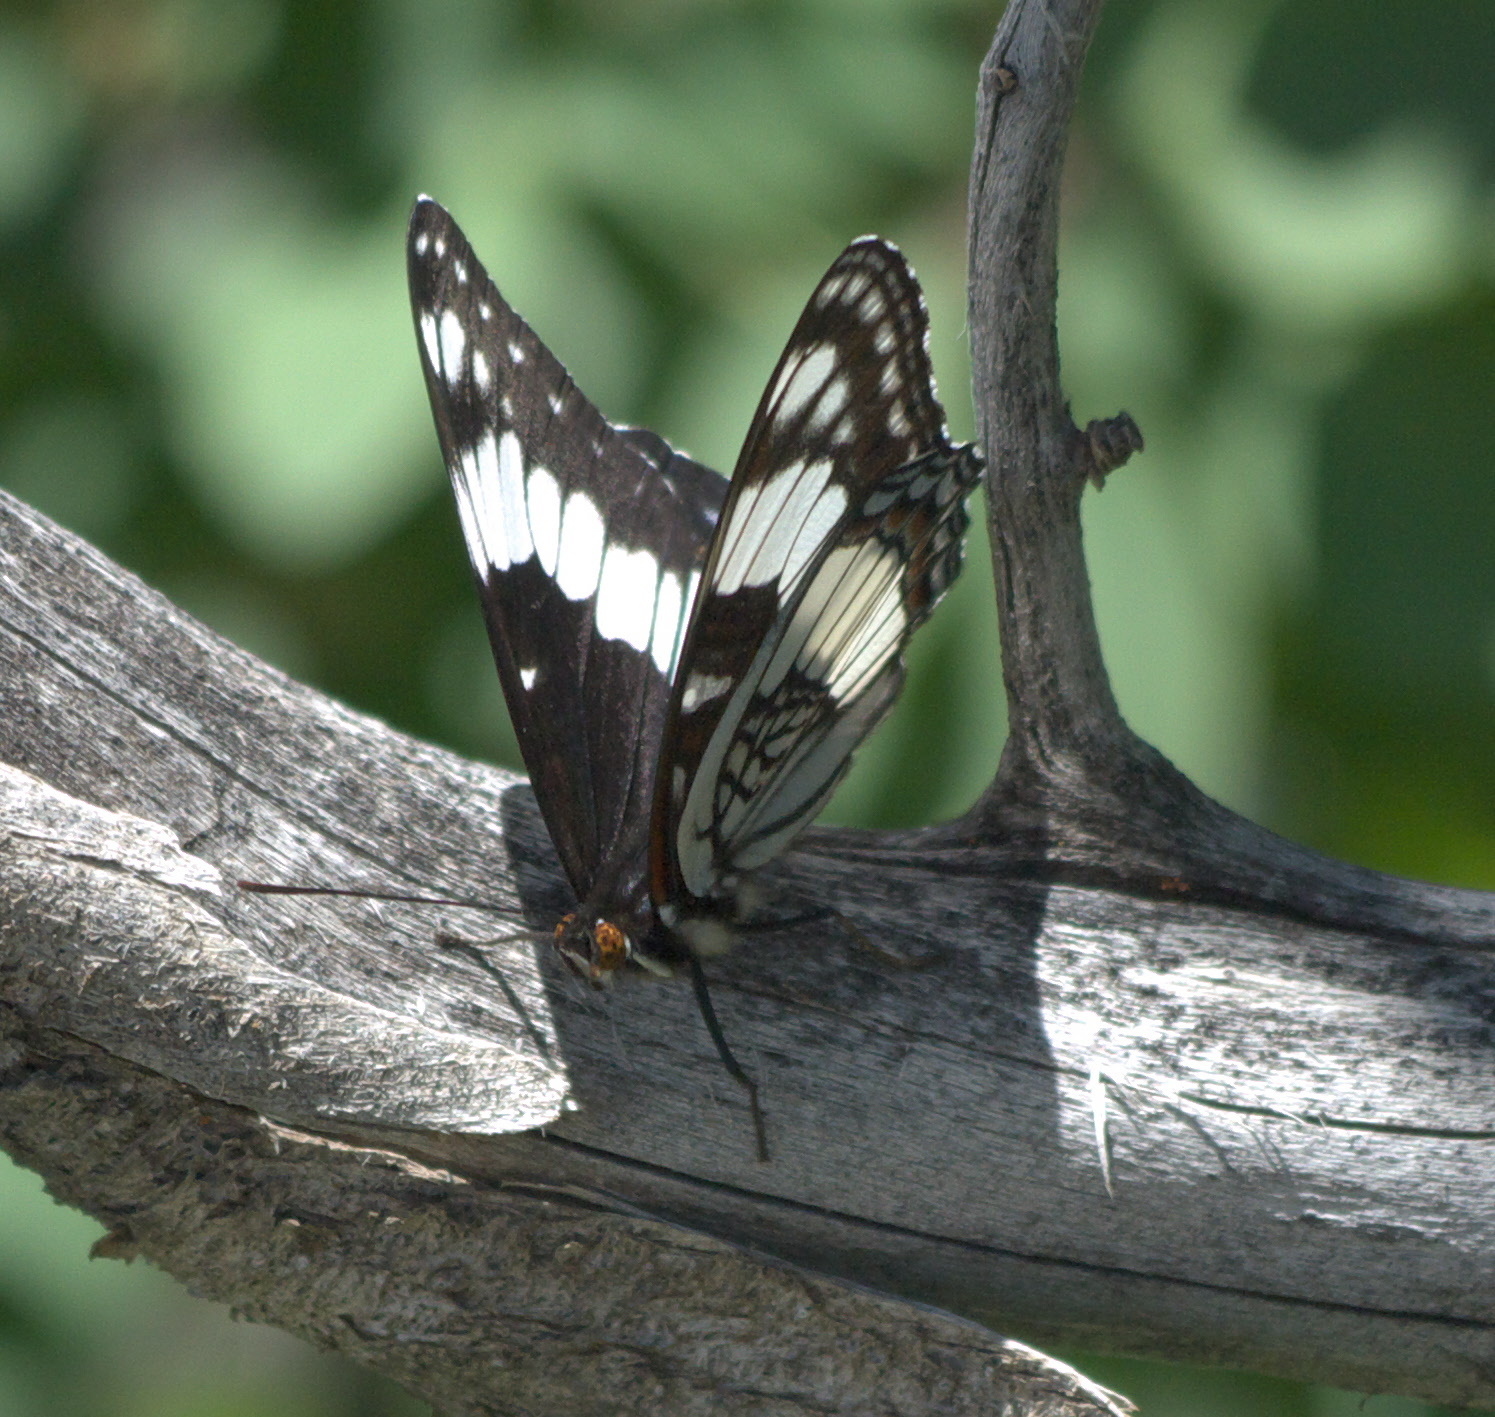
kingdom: Animalia
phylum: Arthropoda
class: Insecta
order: Lepidoptera
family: Nymphalidae
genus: Limenitis
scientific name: Limenitis weidemeyerii
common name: Weidemeyer's admiral
